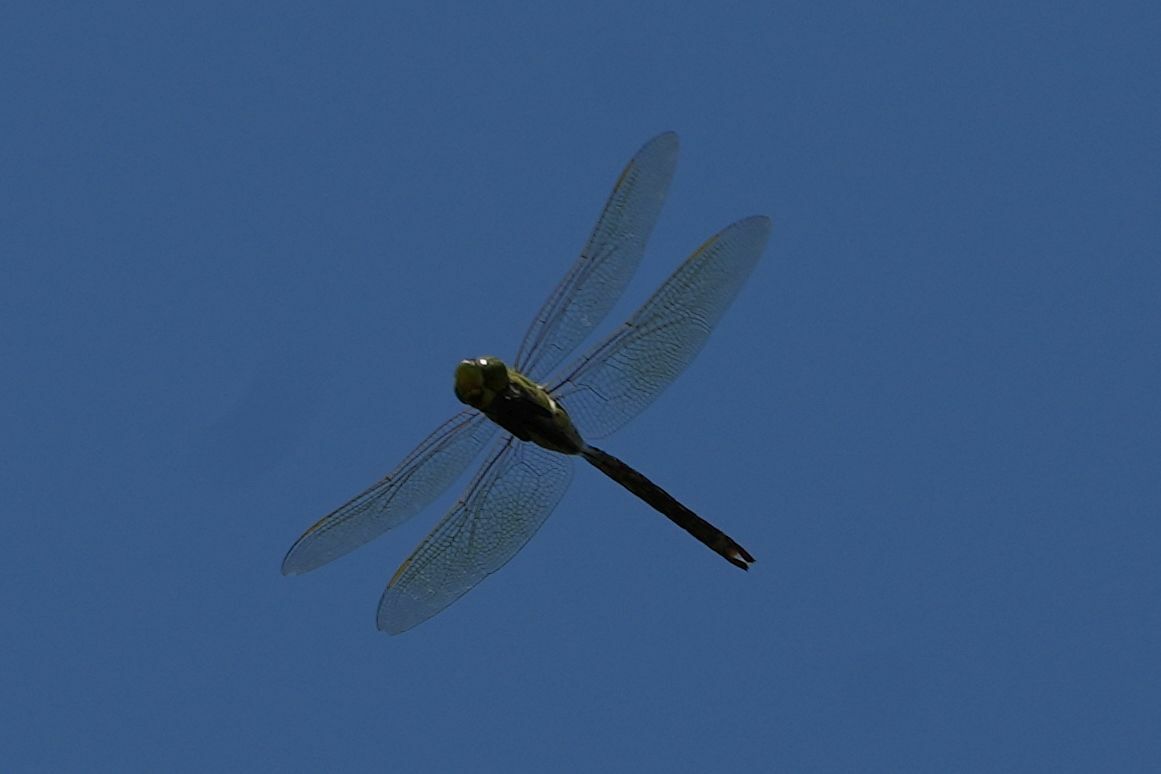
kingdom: Animalia
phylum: Arthropoda
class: Insecta
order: Odonata
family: Aeshnidae
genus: Anax
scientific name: Anax junius
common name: Common green darner
